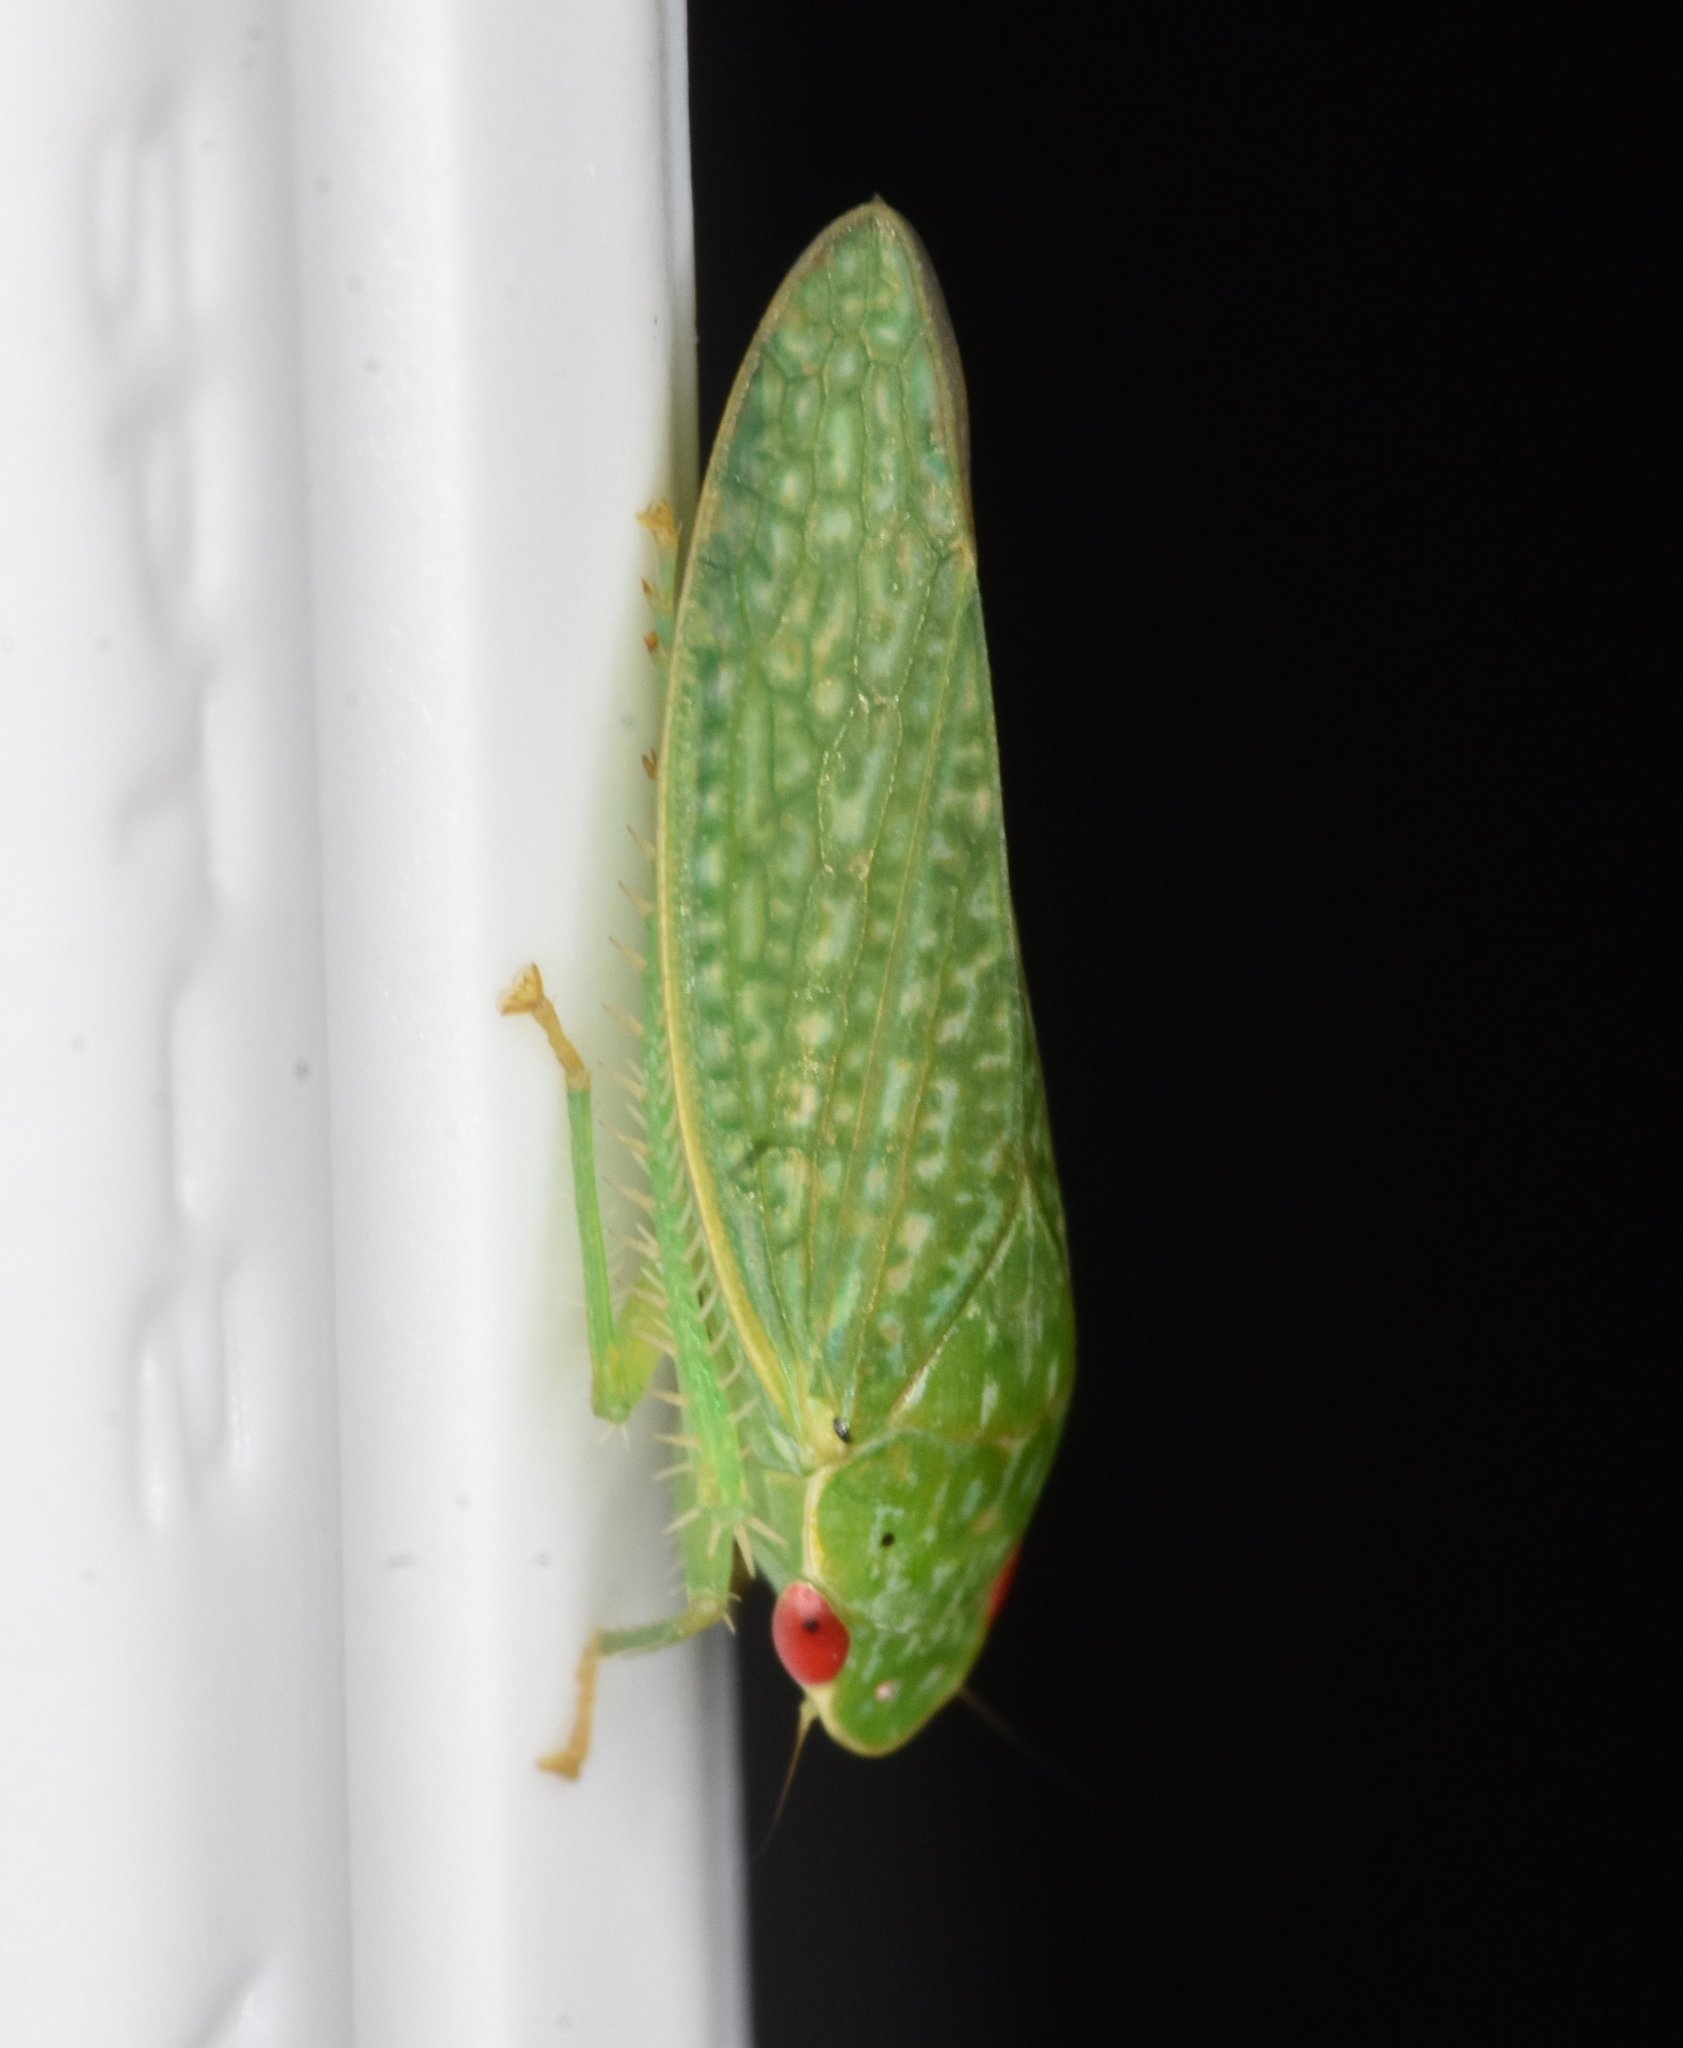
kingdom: Animalia
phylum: Arthropoda
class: Insecta
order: Hemiptera
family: Cicadellidae
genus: Rugosana
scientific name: Rugosana querci
